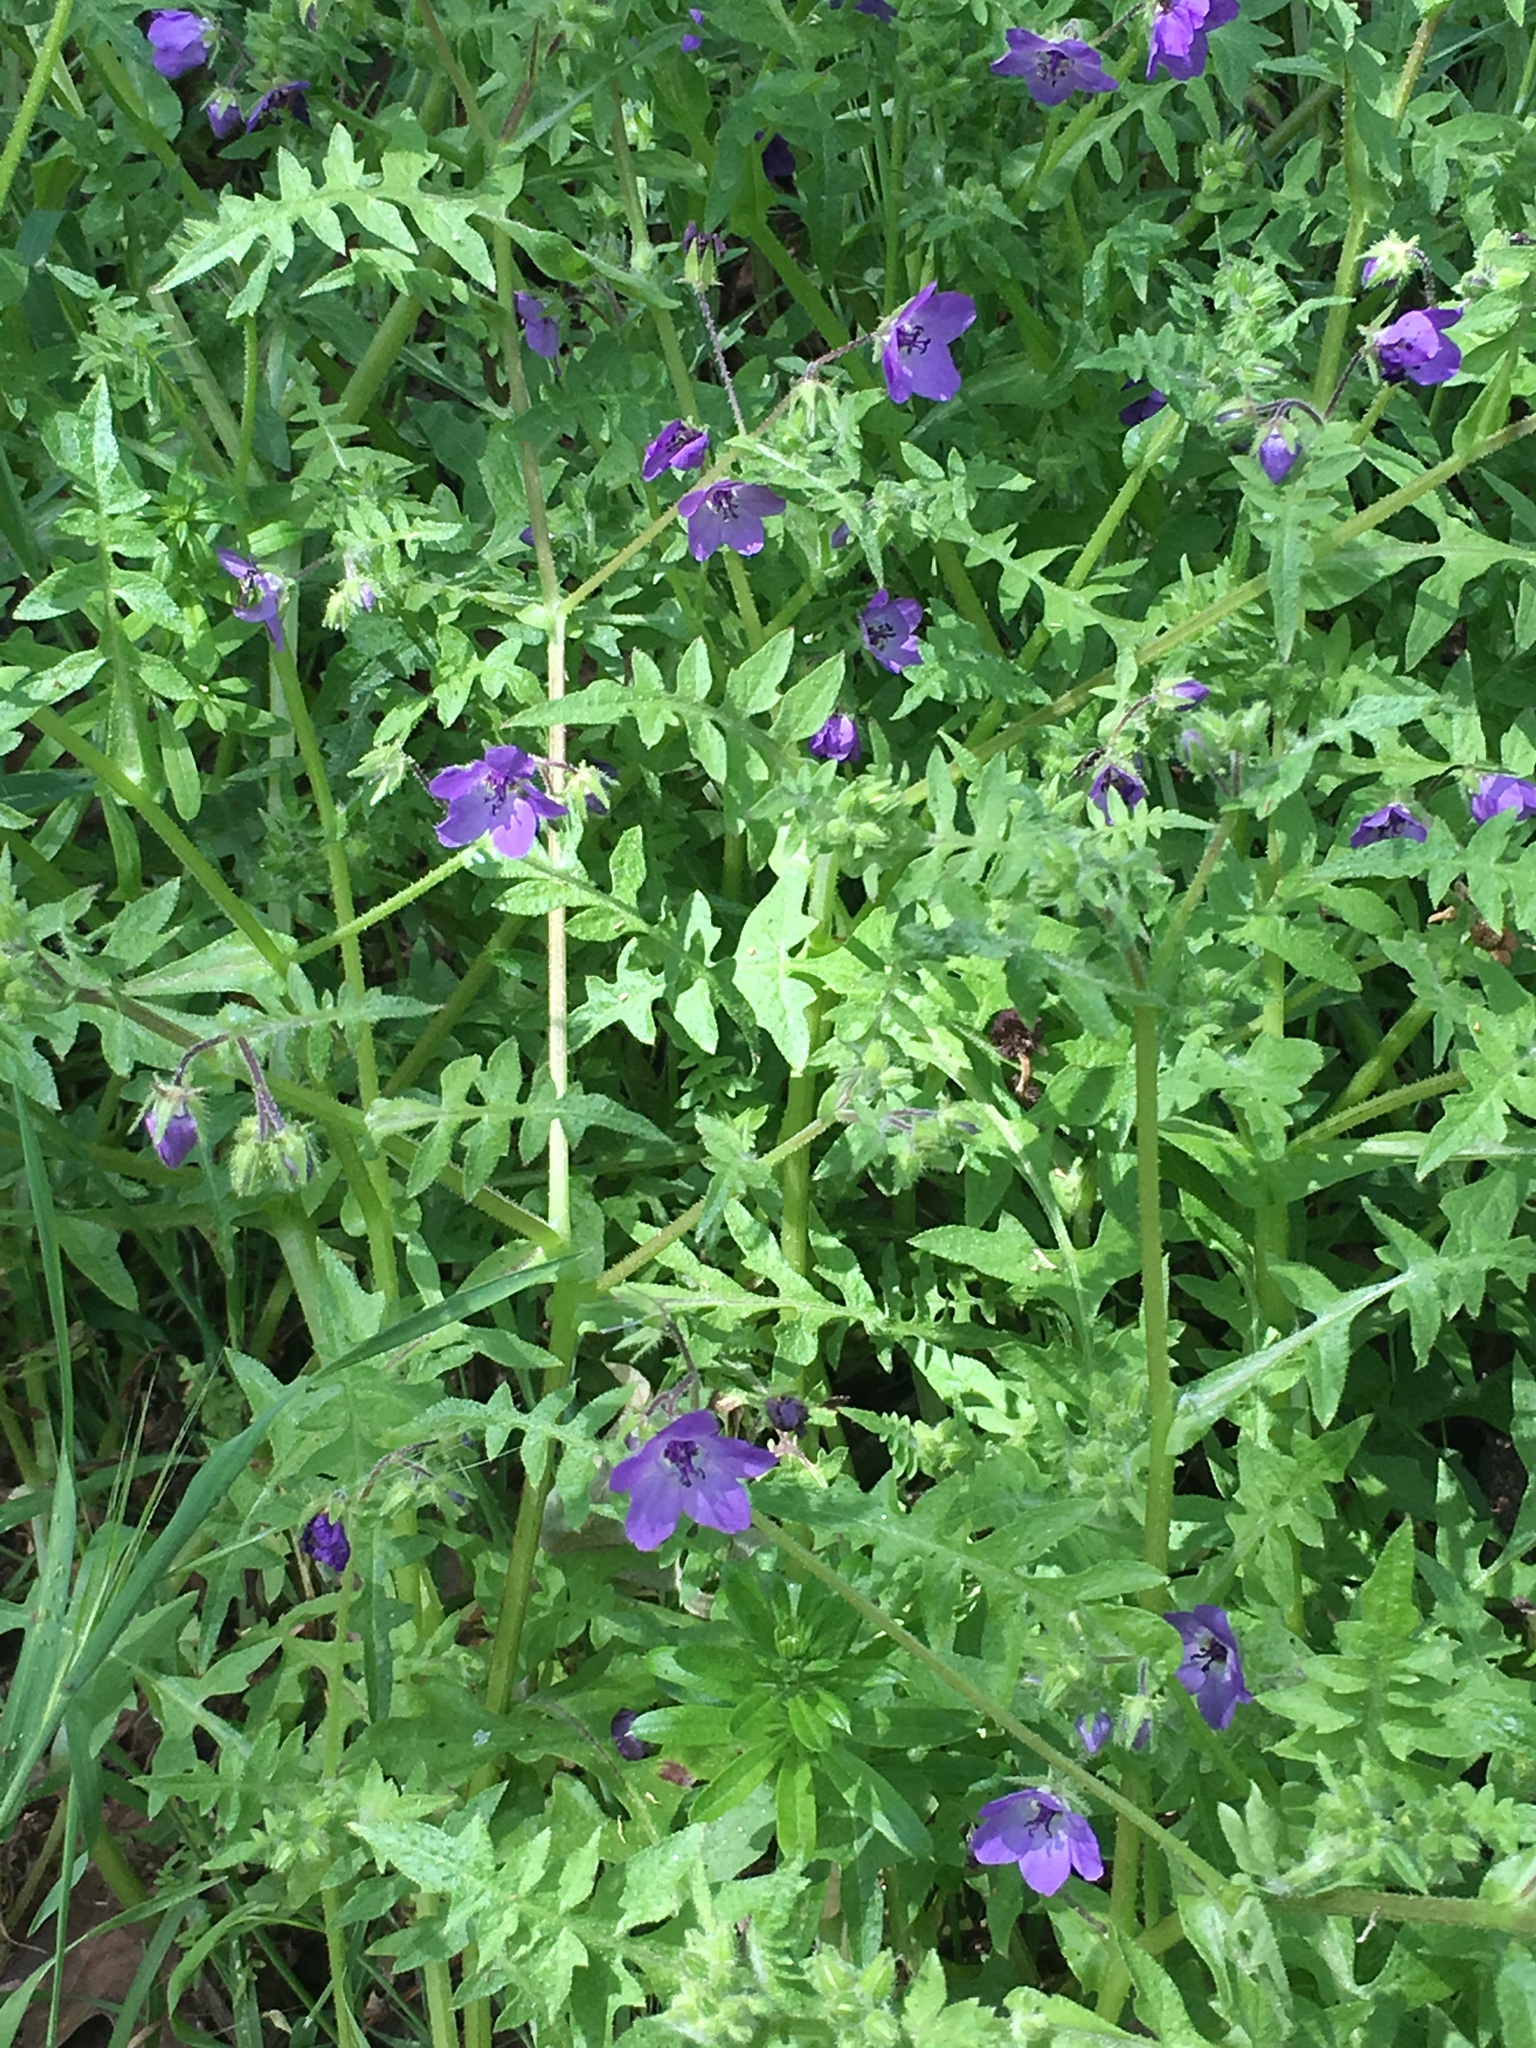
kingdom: Plantae
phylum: Tracheophyta
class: Magnoliopsida
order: Boraginales
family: Hydrophyllaceae
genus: Pholistoma
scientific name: Pholistoma auritum
